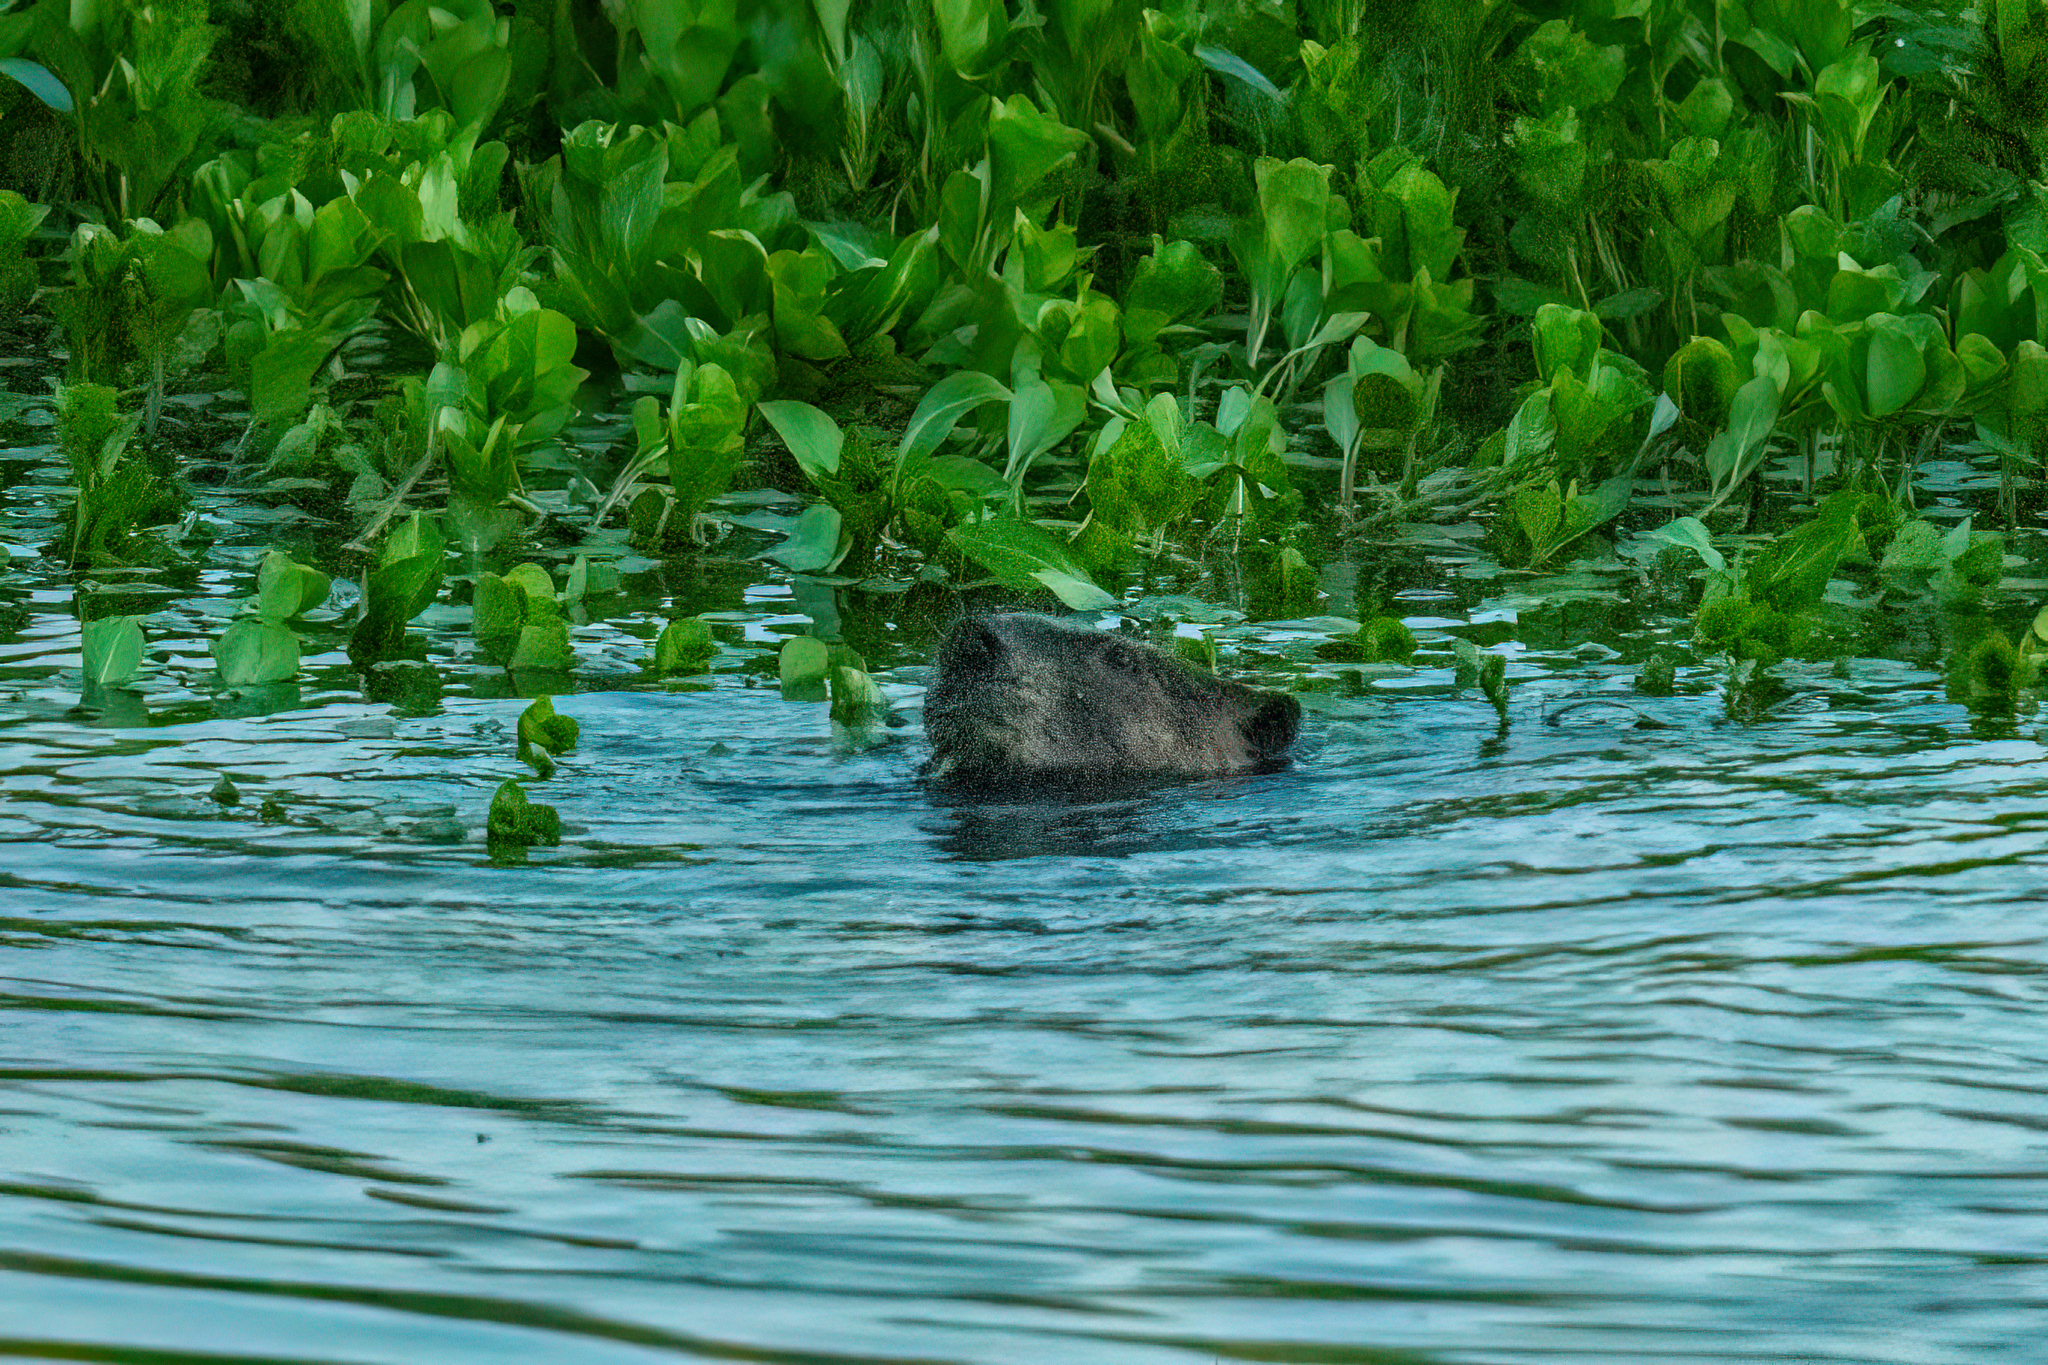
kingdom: Animalia
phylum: Chordata
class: Mammalia
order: Rodentia
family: Castoridae
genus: Castor
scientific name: Castor canadensis
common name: American beaver
